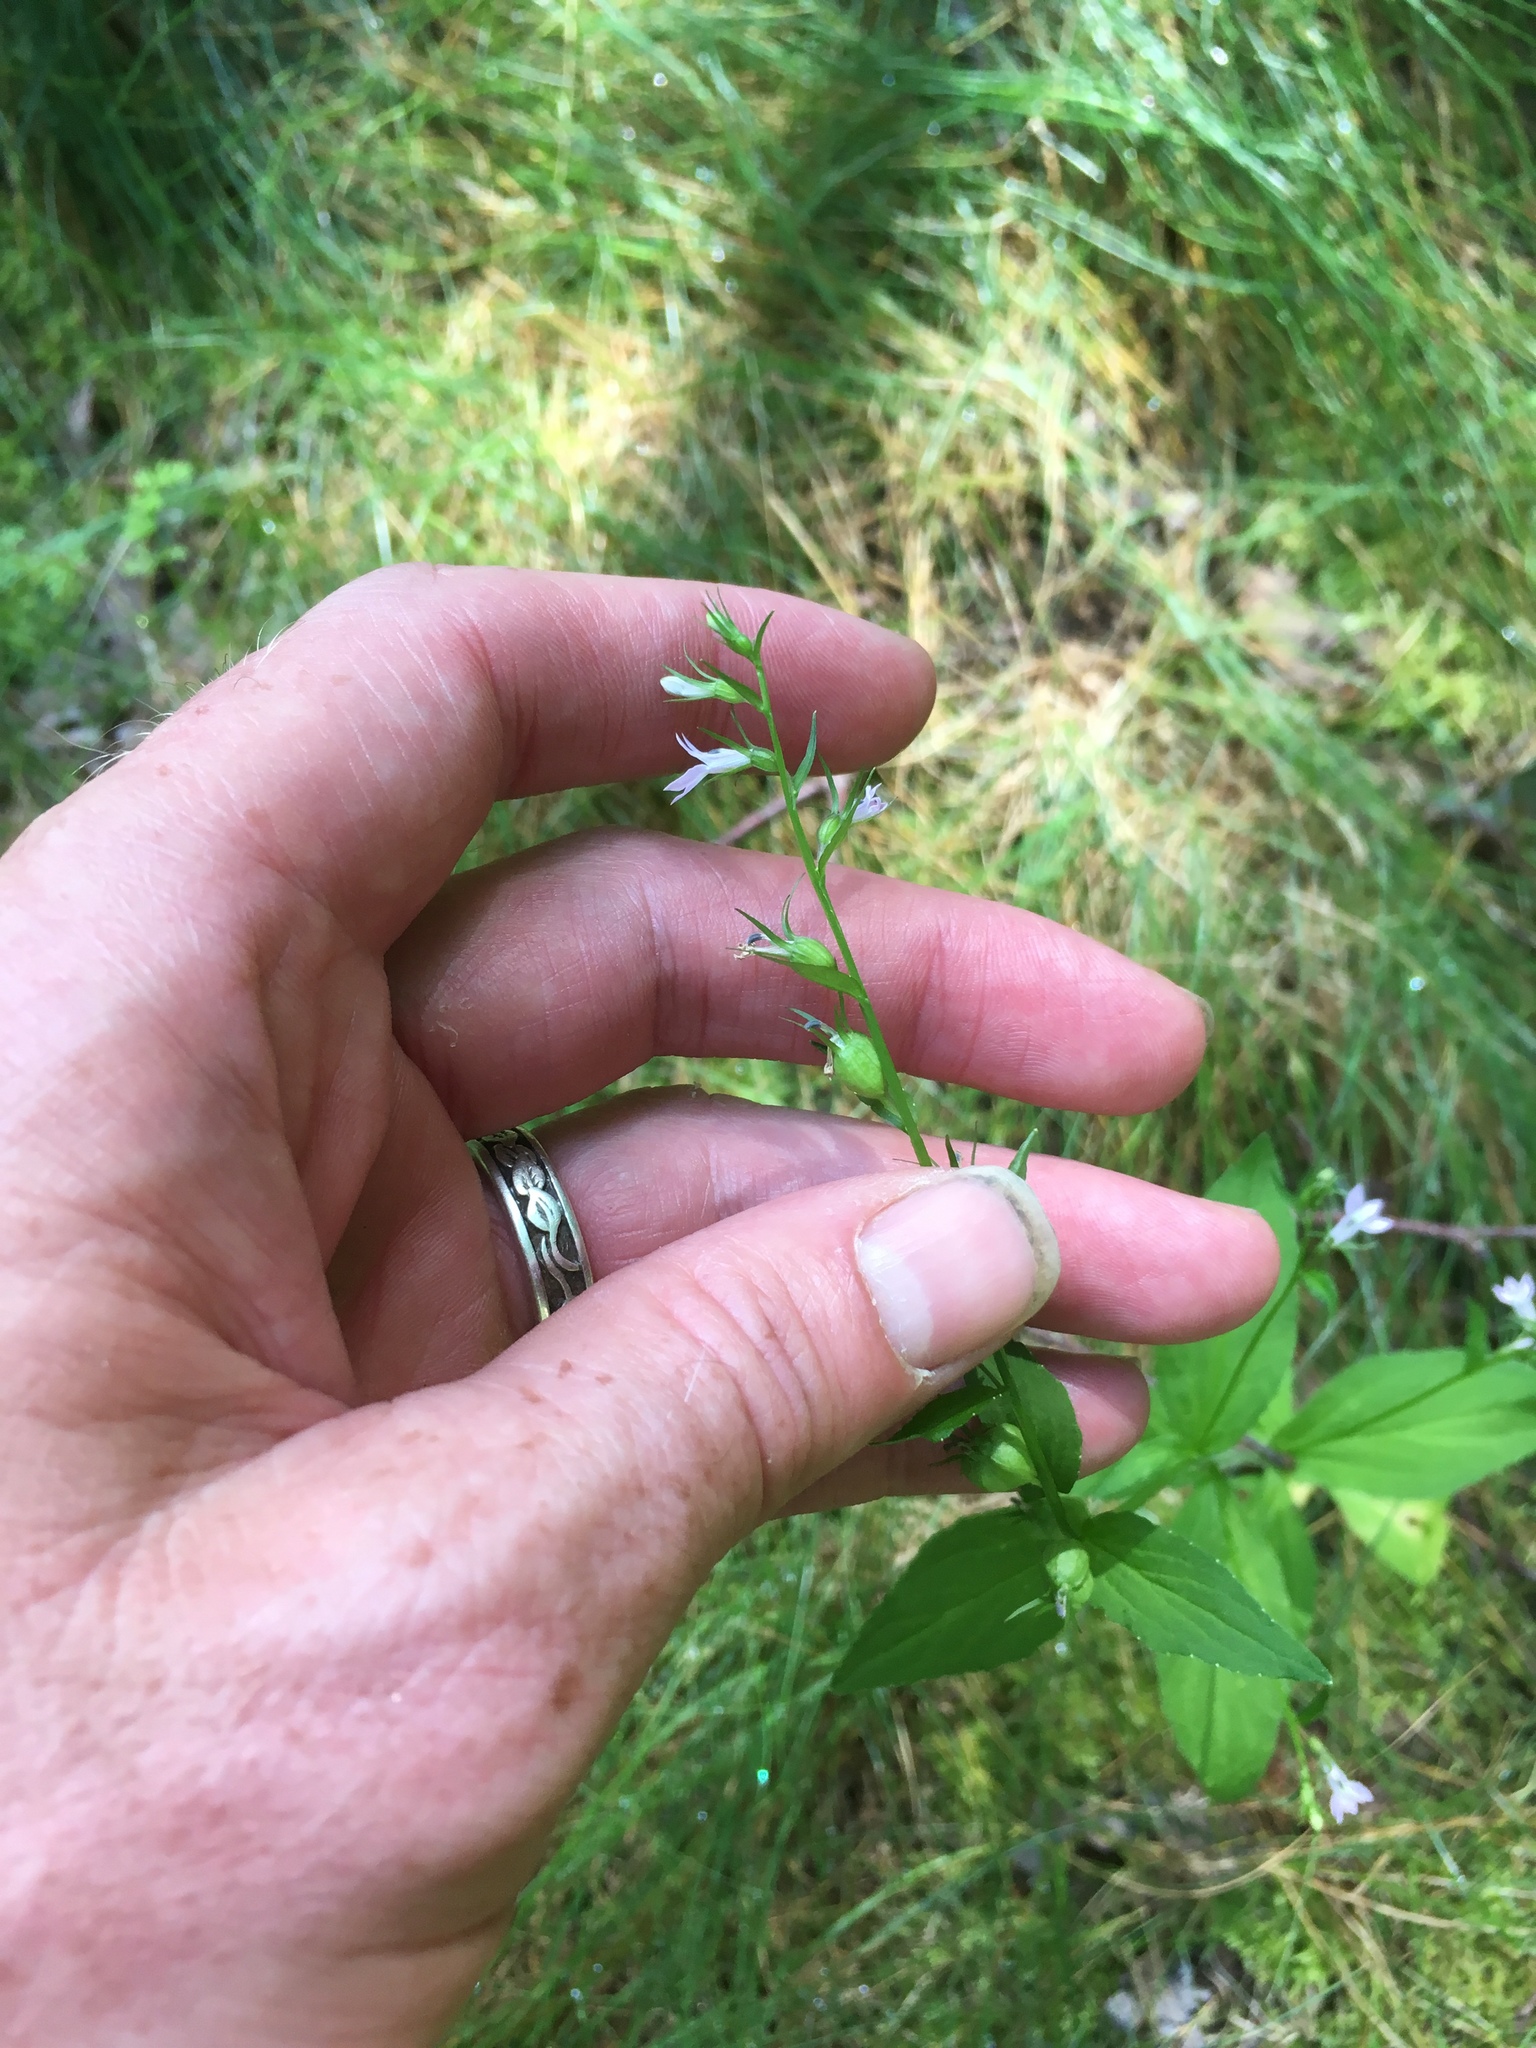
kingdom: Plantae
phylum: Tracheophyta
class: Magnoliopsida
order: Asterales
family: Campanulaceae
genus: Lobelia
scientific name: Lobelia inflata
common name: Indian tobacco
